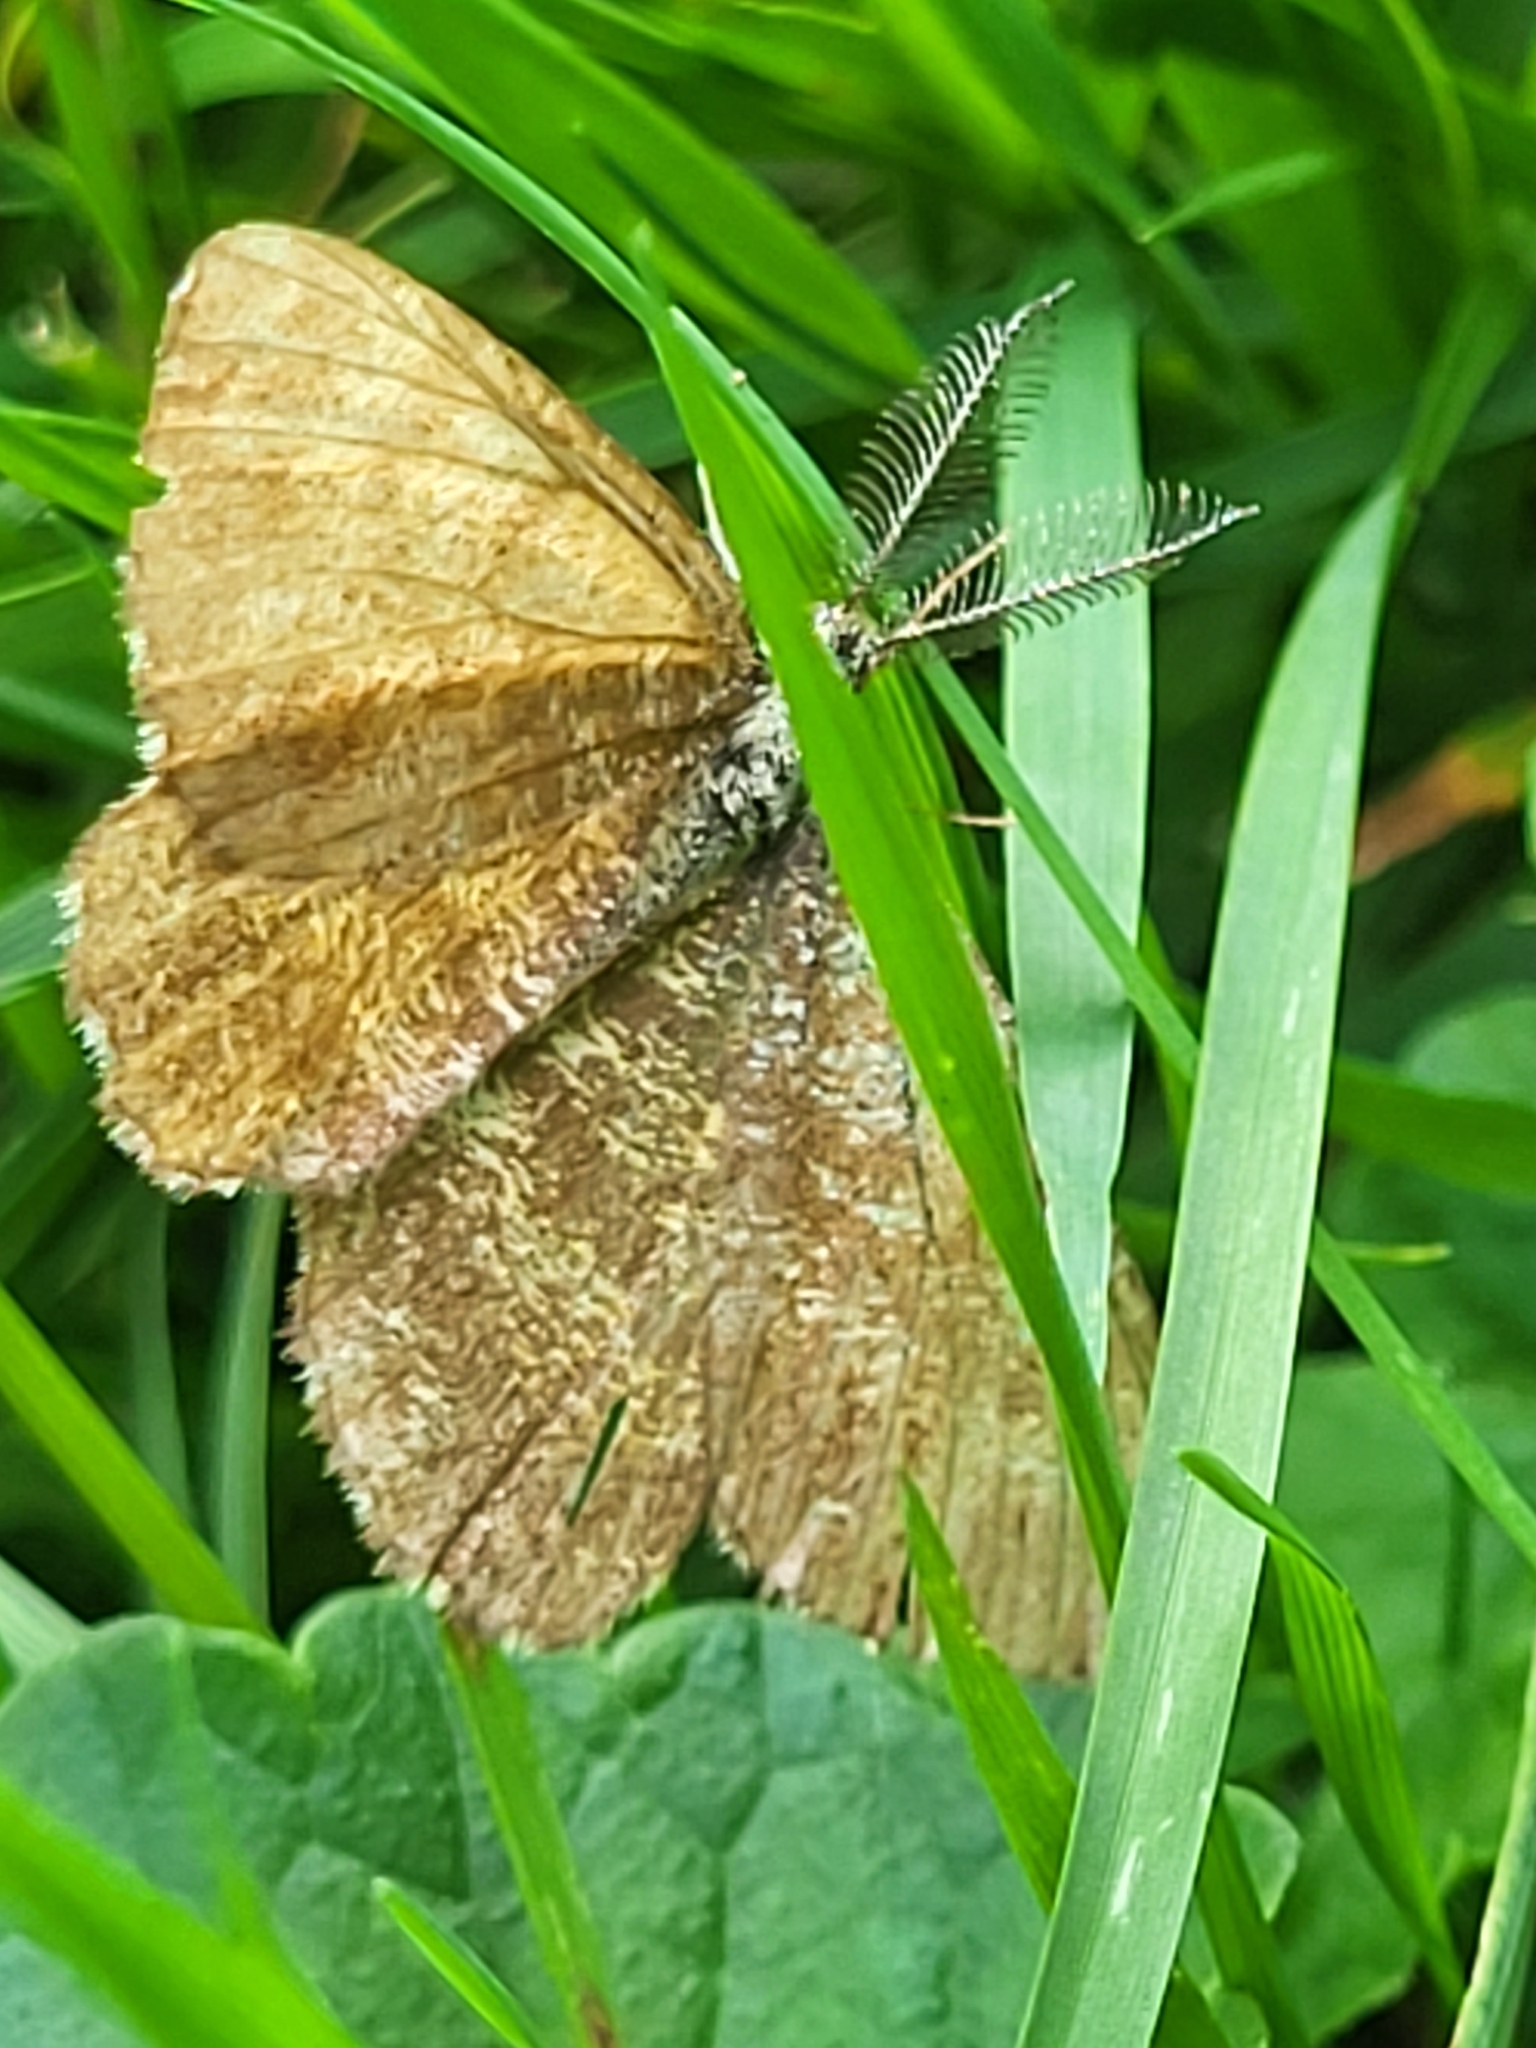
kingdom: Animalia
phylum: Arthropoda
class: Insecta
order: Lepidoptera
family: Geometridae
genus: Ematurga
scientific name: Ematurga atomaria
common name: Common heath
